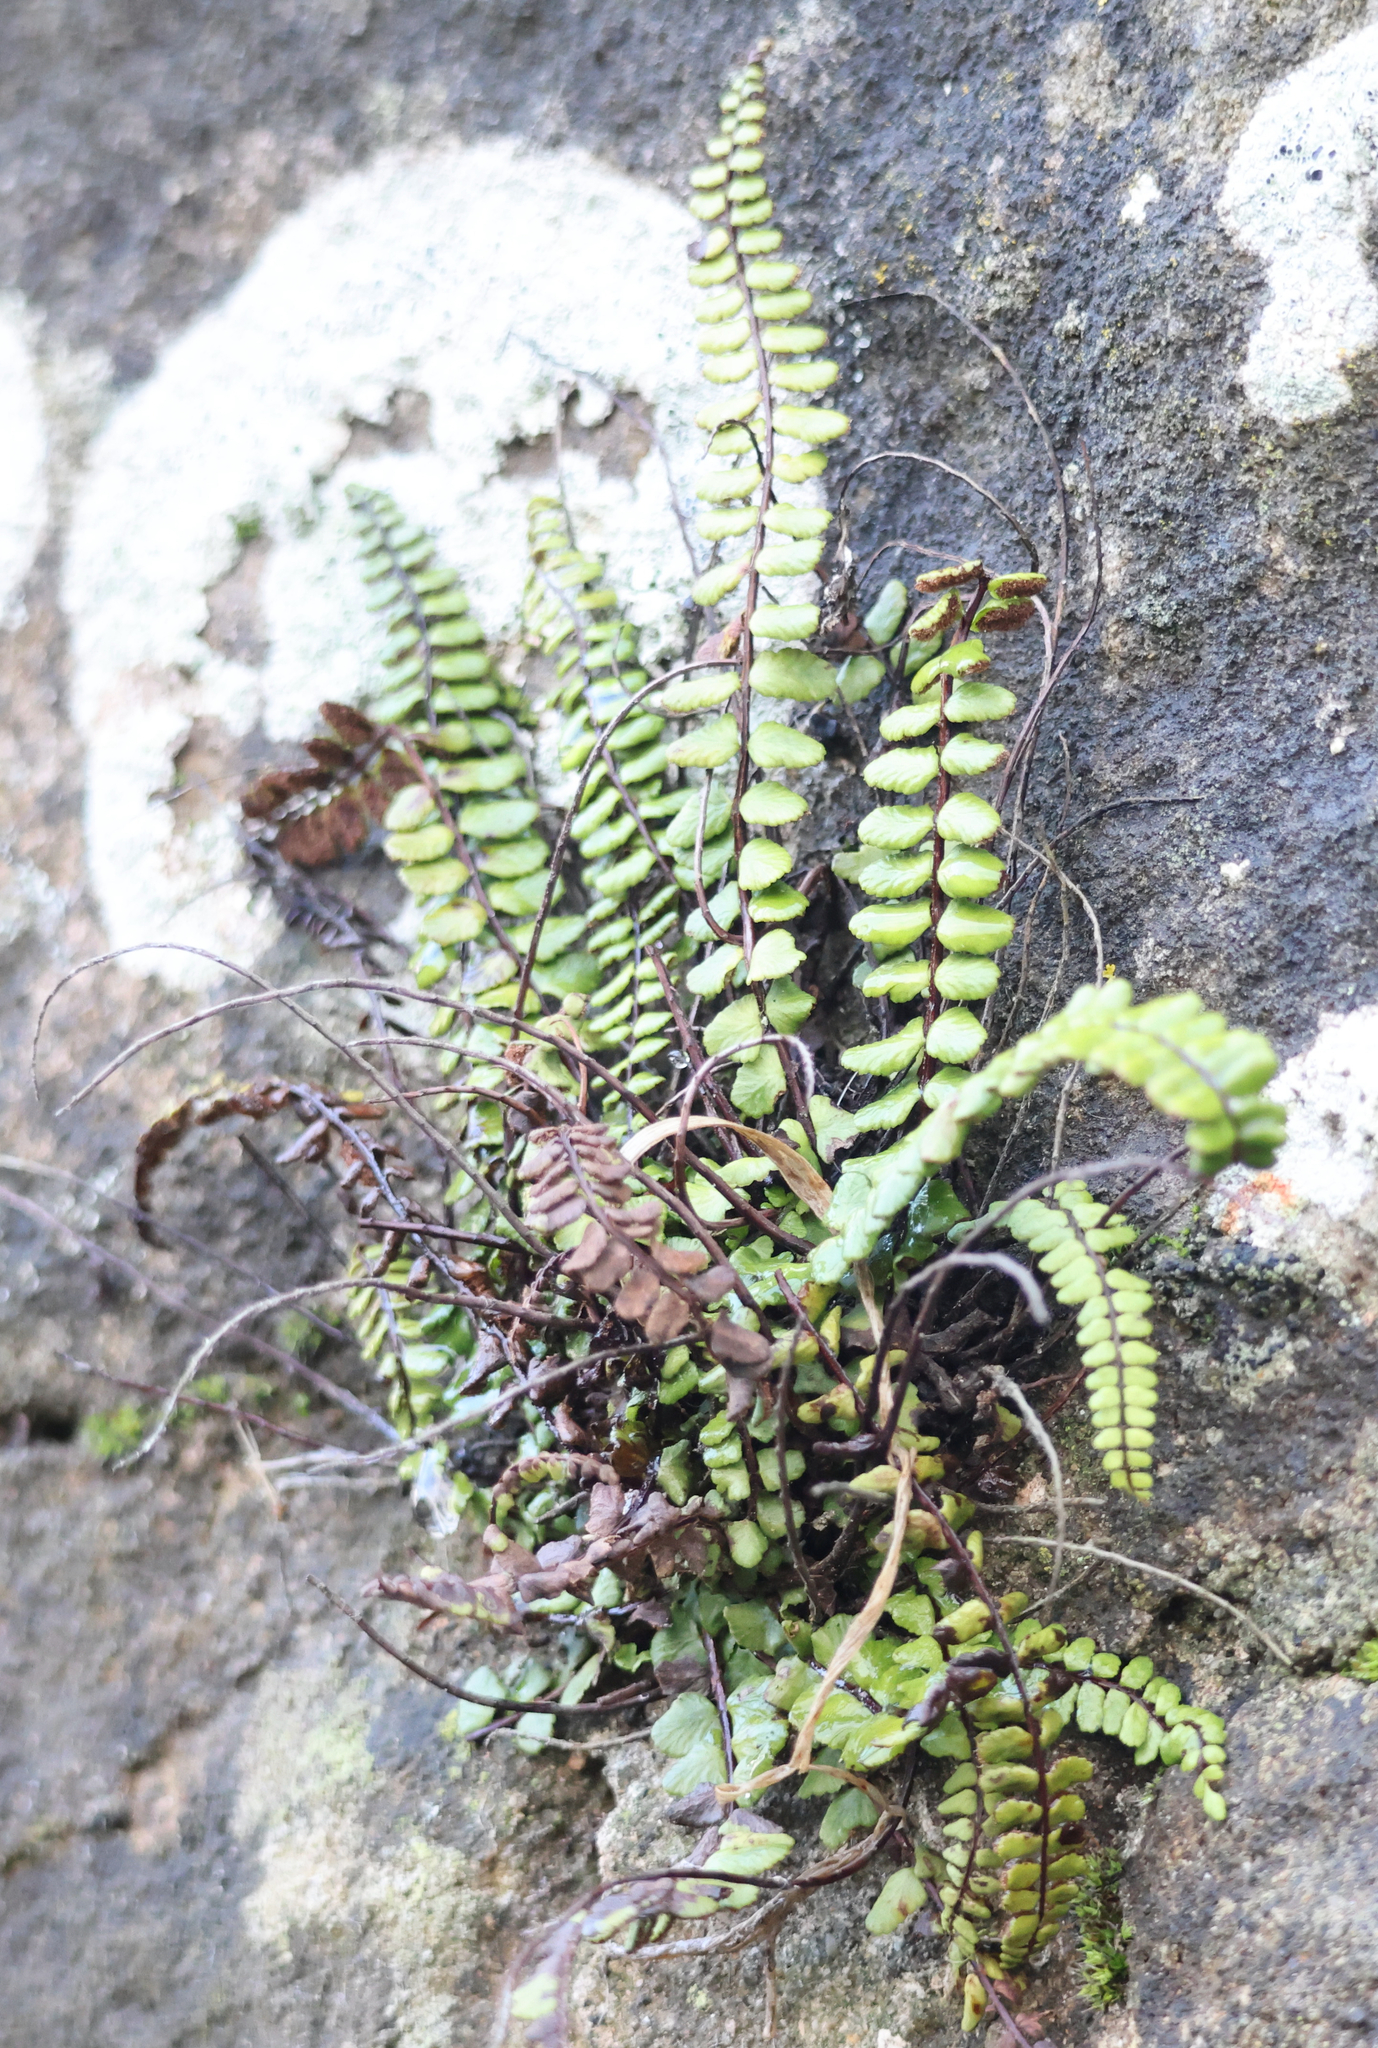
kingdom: Plantae
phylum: Tracheophyta
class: Polypodiopsida
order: Polypodiales
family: Aspleniaceae
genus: Asplenium
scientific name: Asplenium trichomanes
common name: Maidenhair spleenwort
